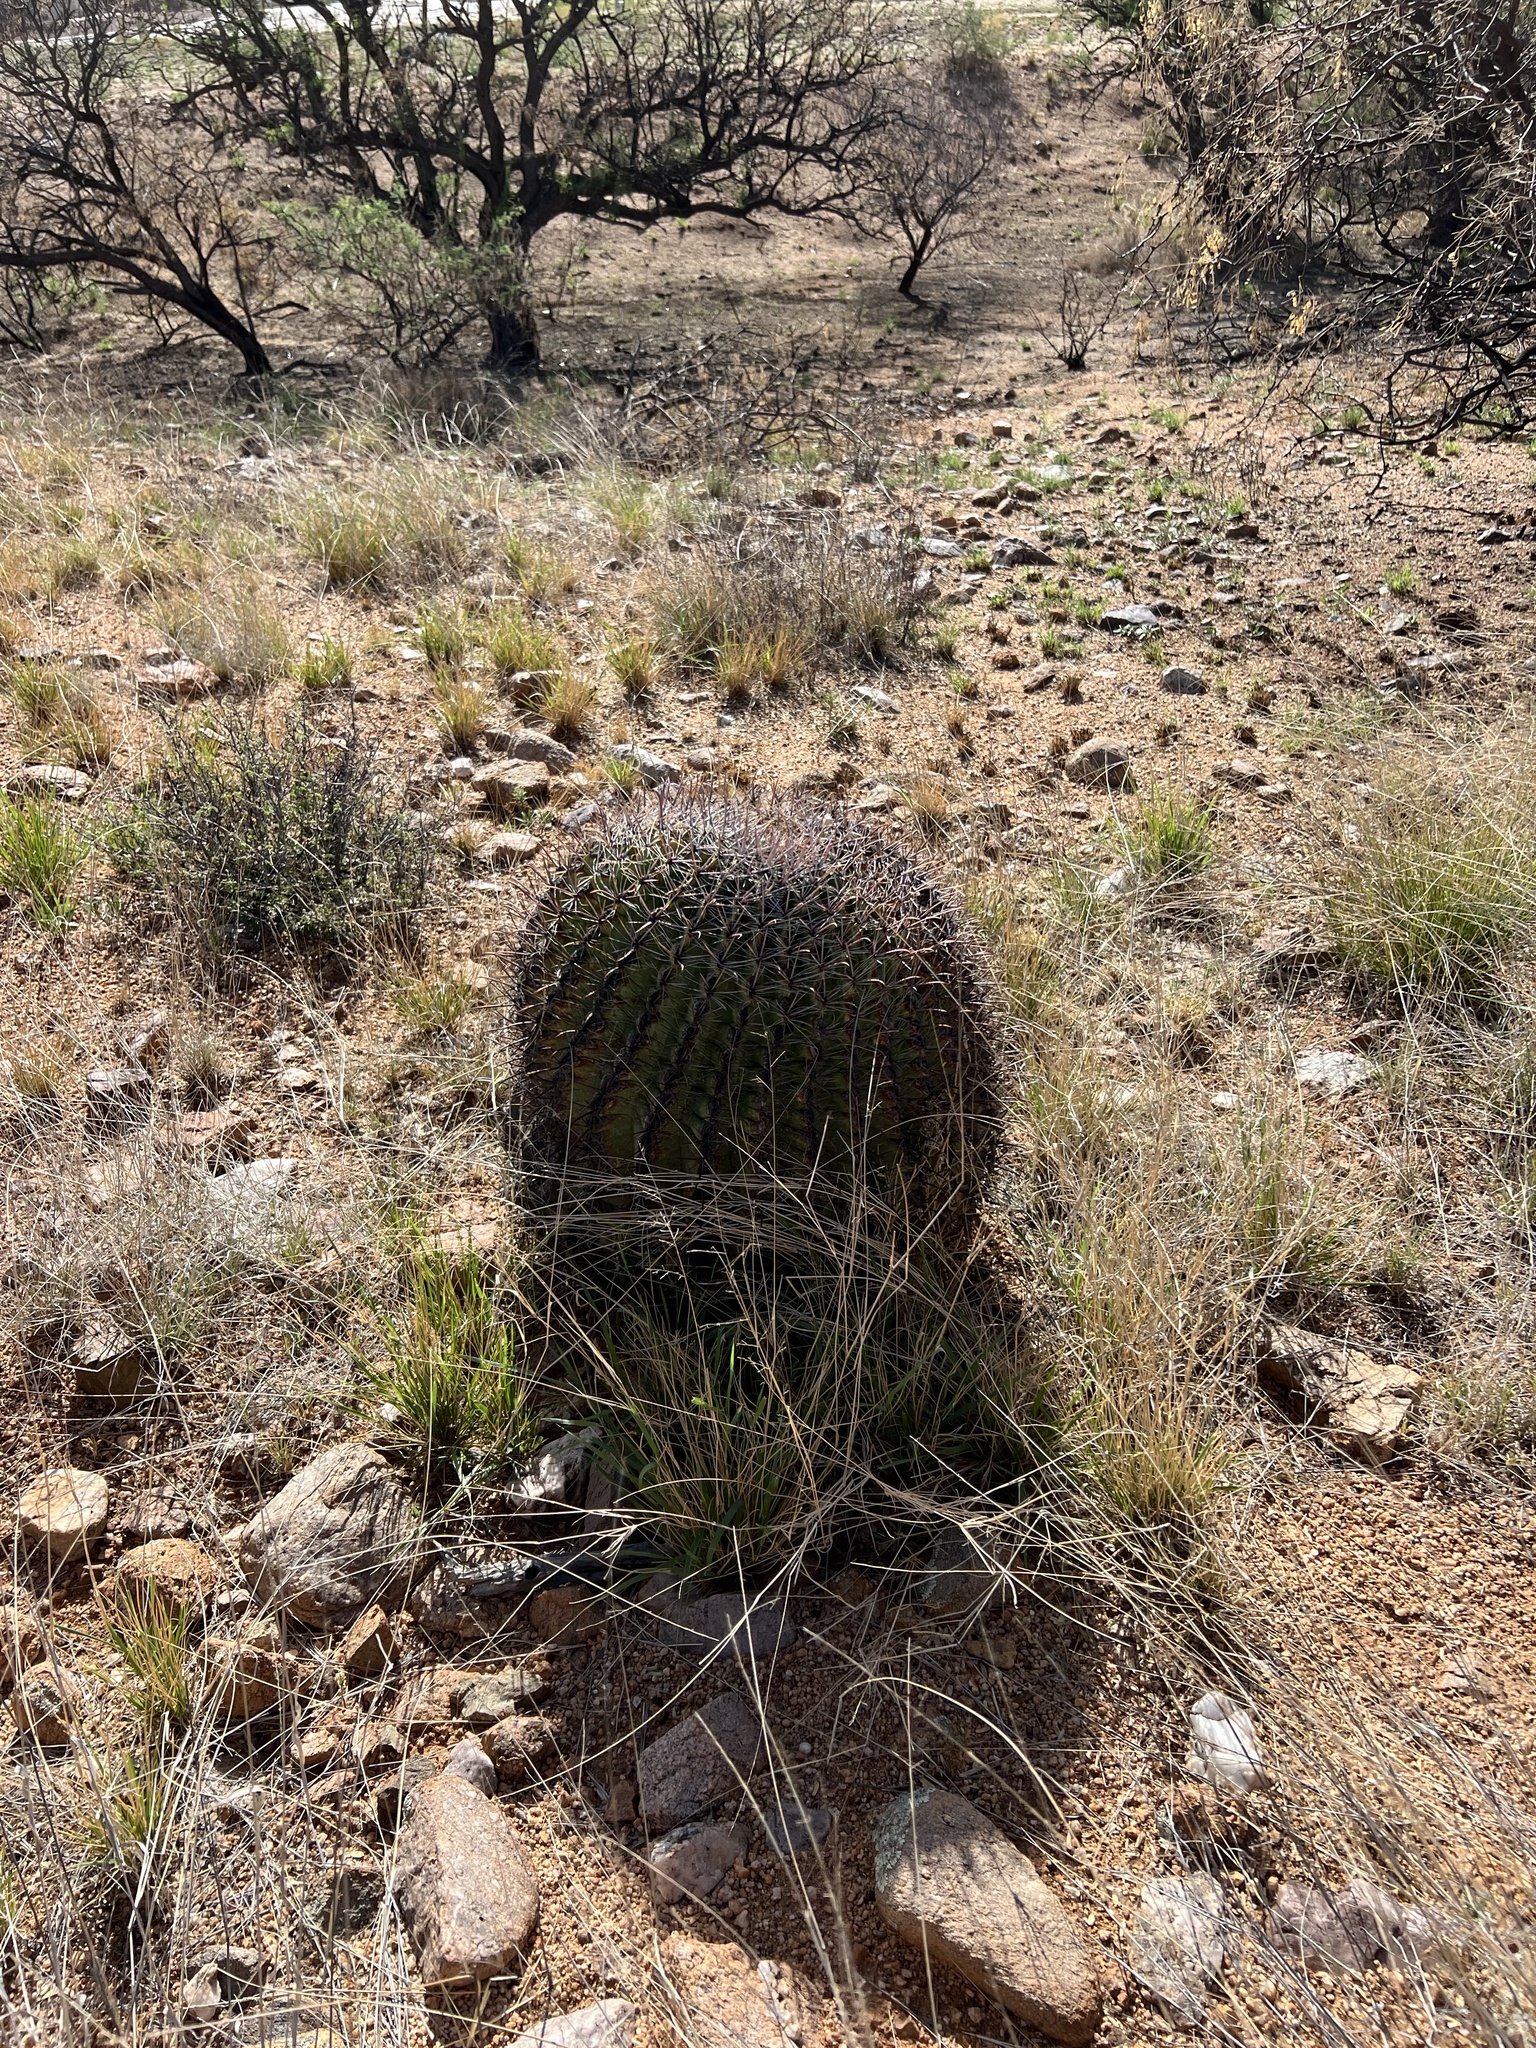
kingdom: Plantae
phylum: Tracheophyta
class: Magnoliopsida
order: Caryophyllales
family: Cactaceae
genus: Ferocactus
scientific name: Ferocactus wislizeni
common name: Candy barrel cactus
